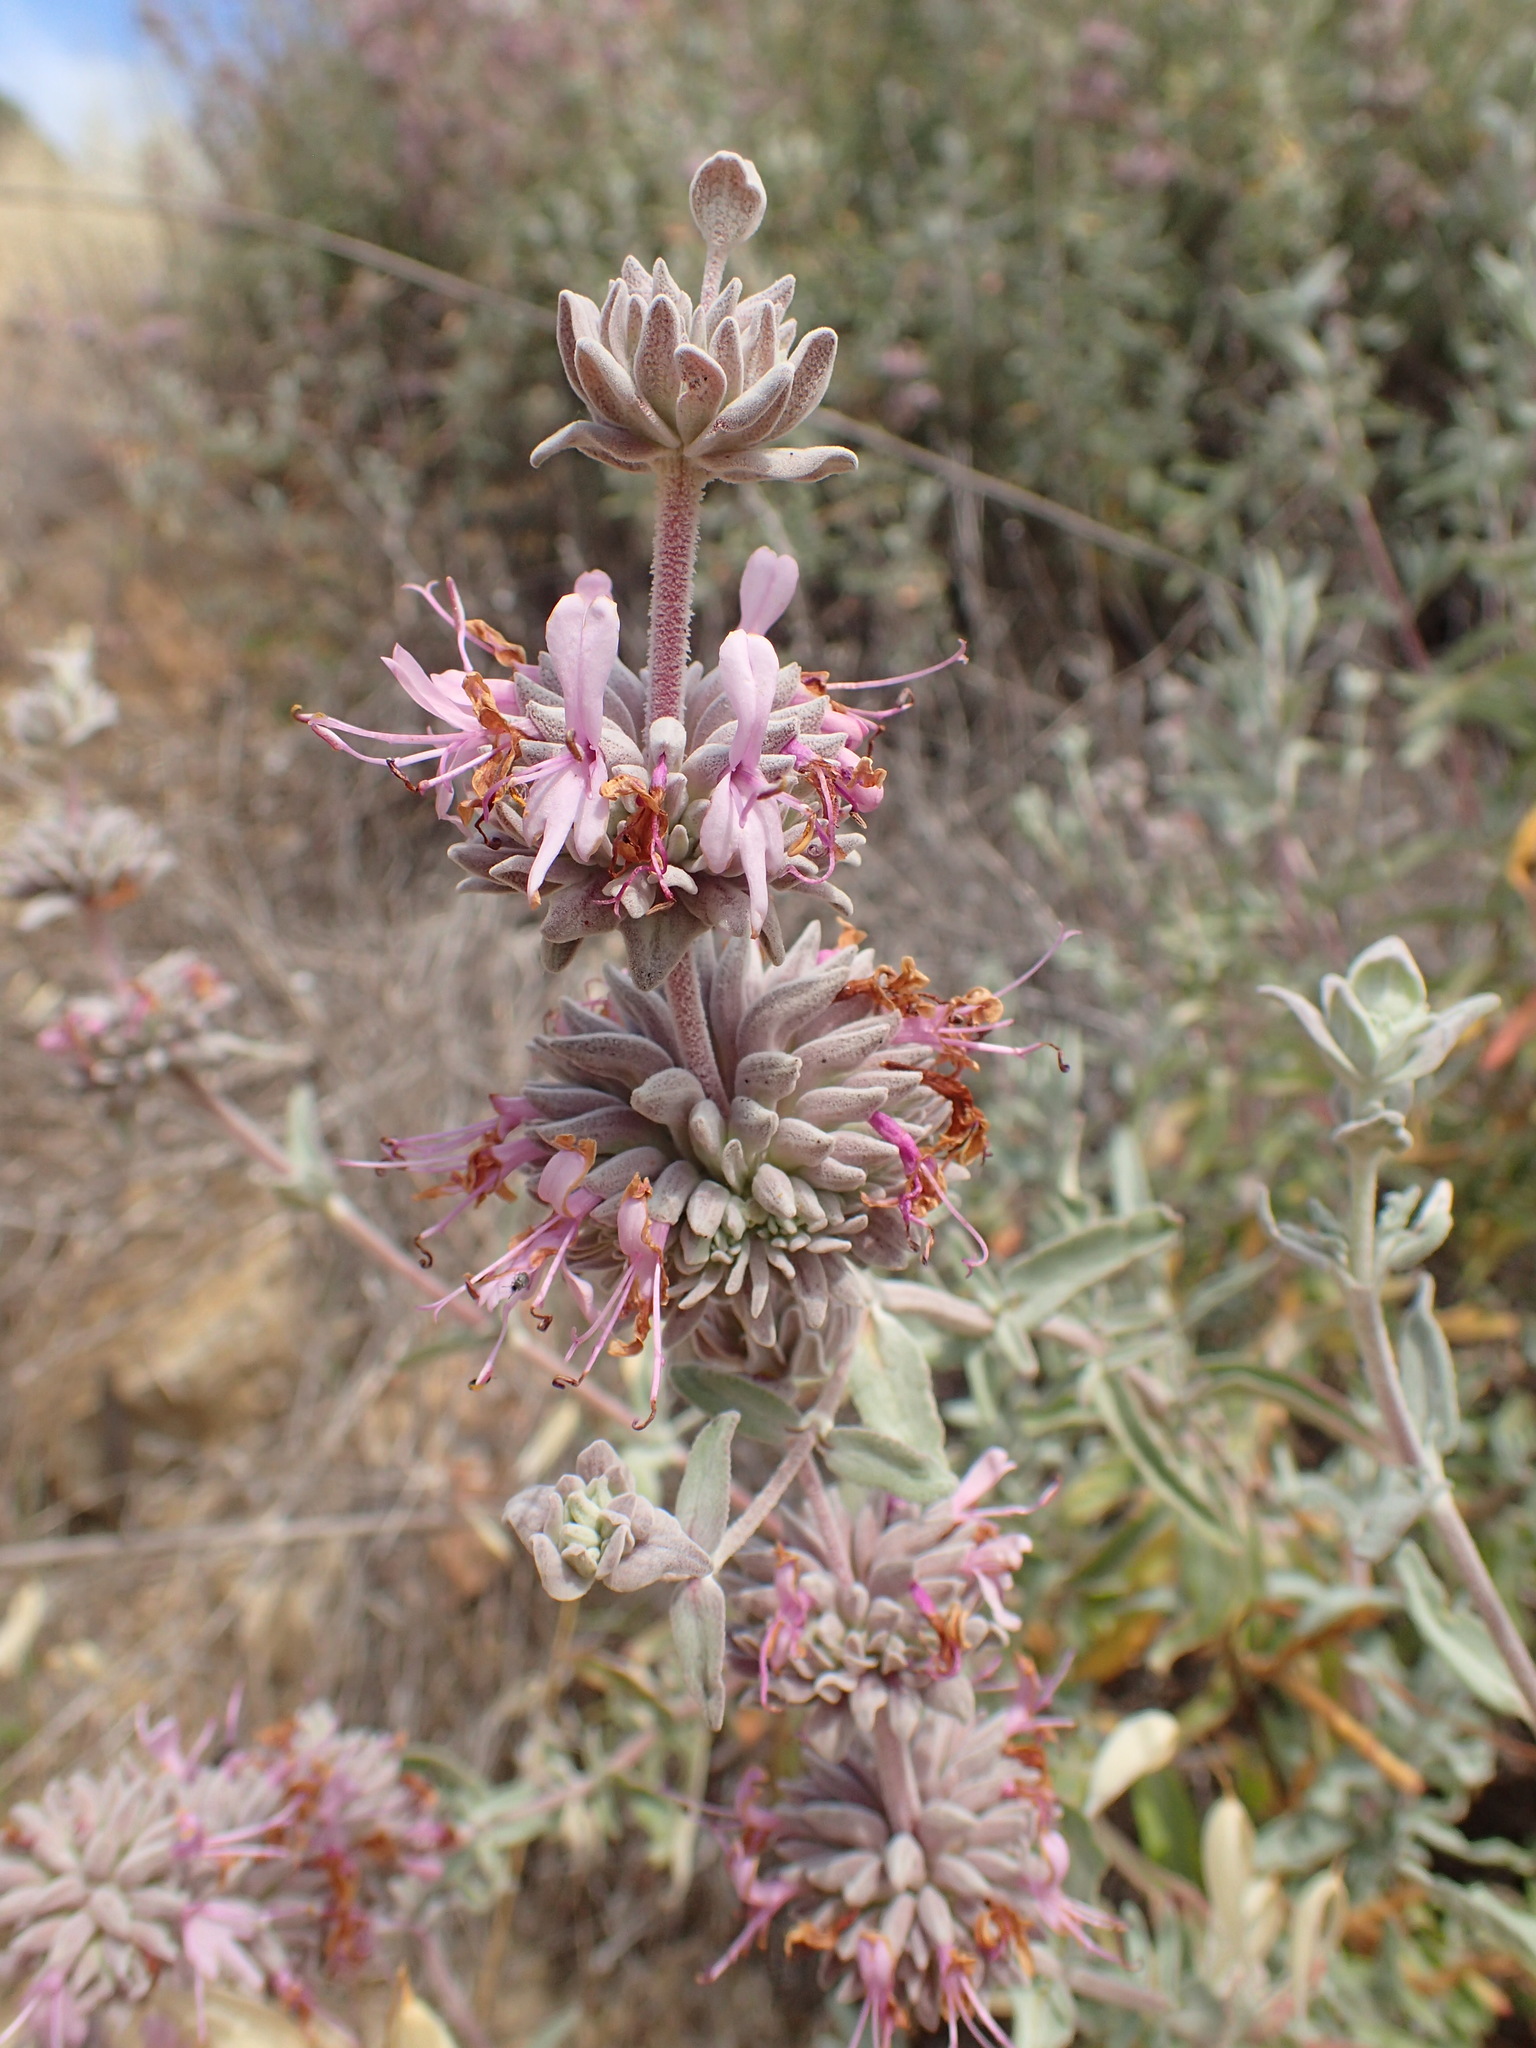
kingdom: Plantae
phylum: Tracheophyta
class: Magnoliopsida
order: Lamiales
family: Lamiaceae
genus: Salvia
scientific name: Salvia leucophylla
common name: Purple sage
